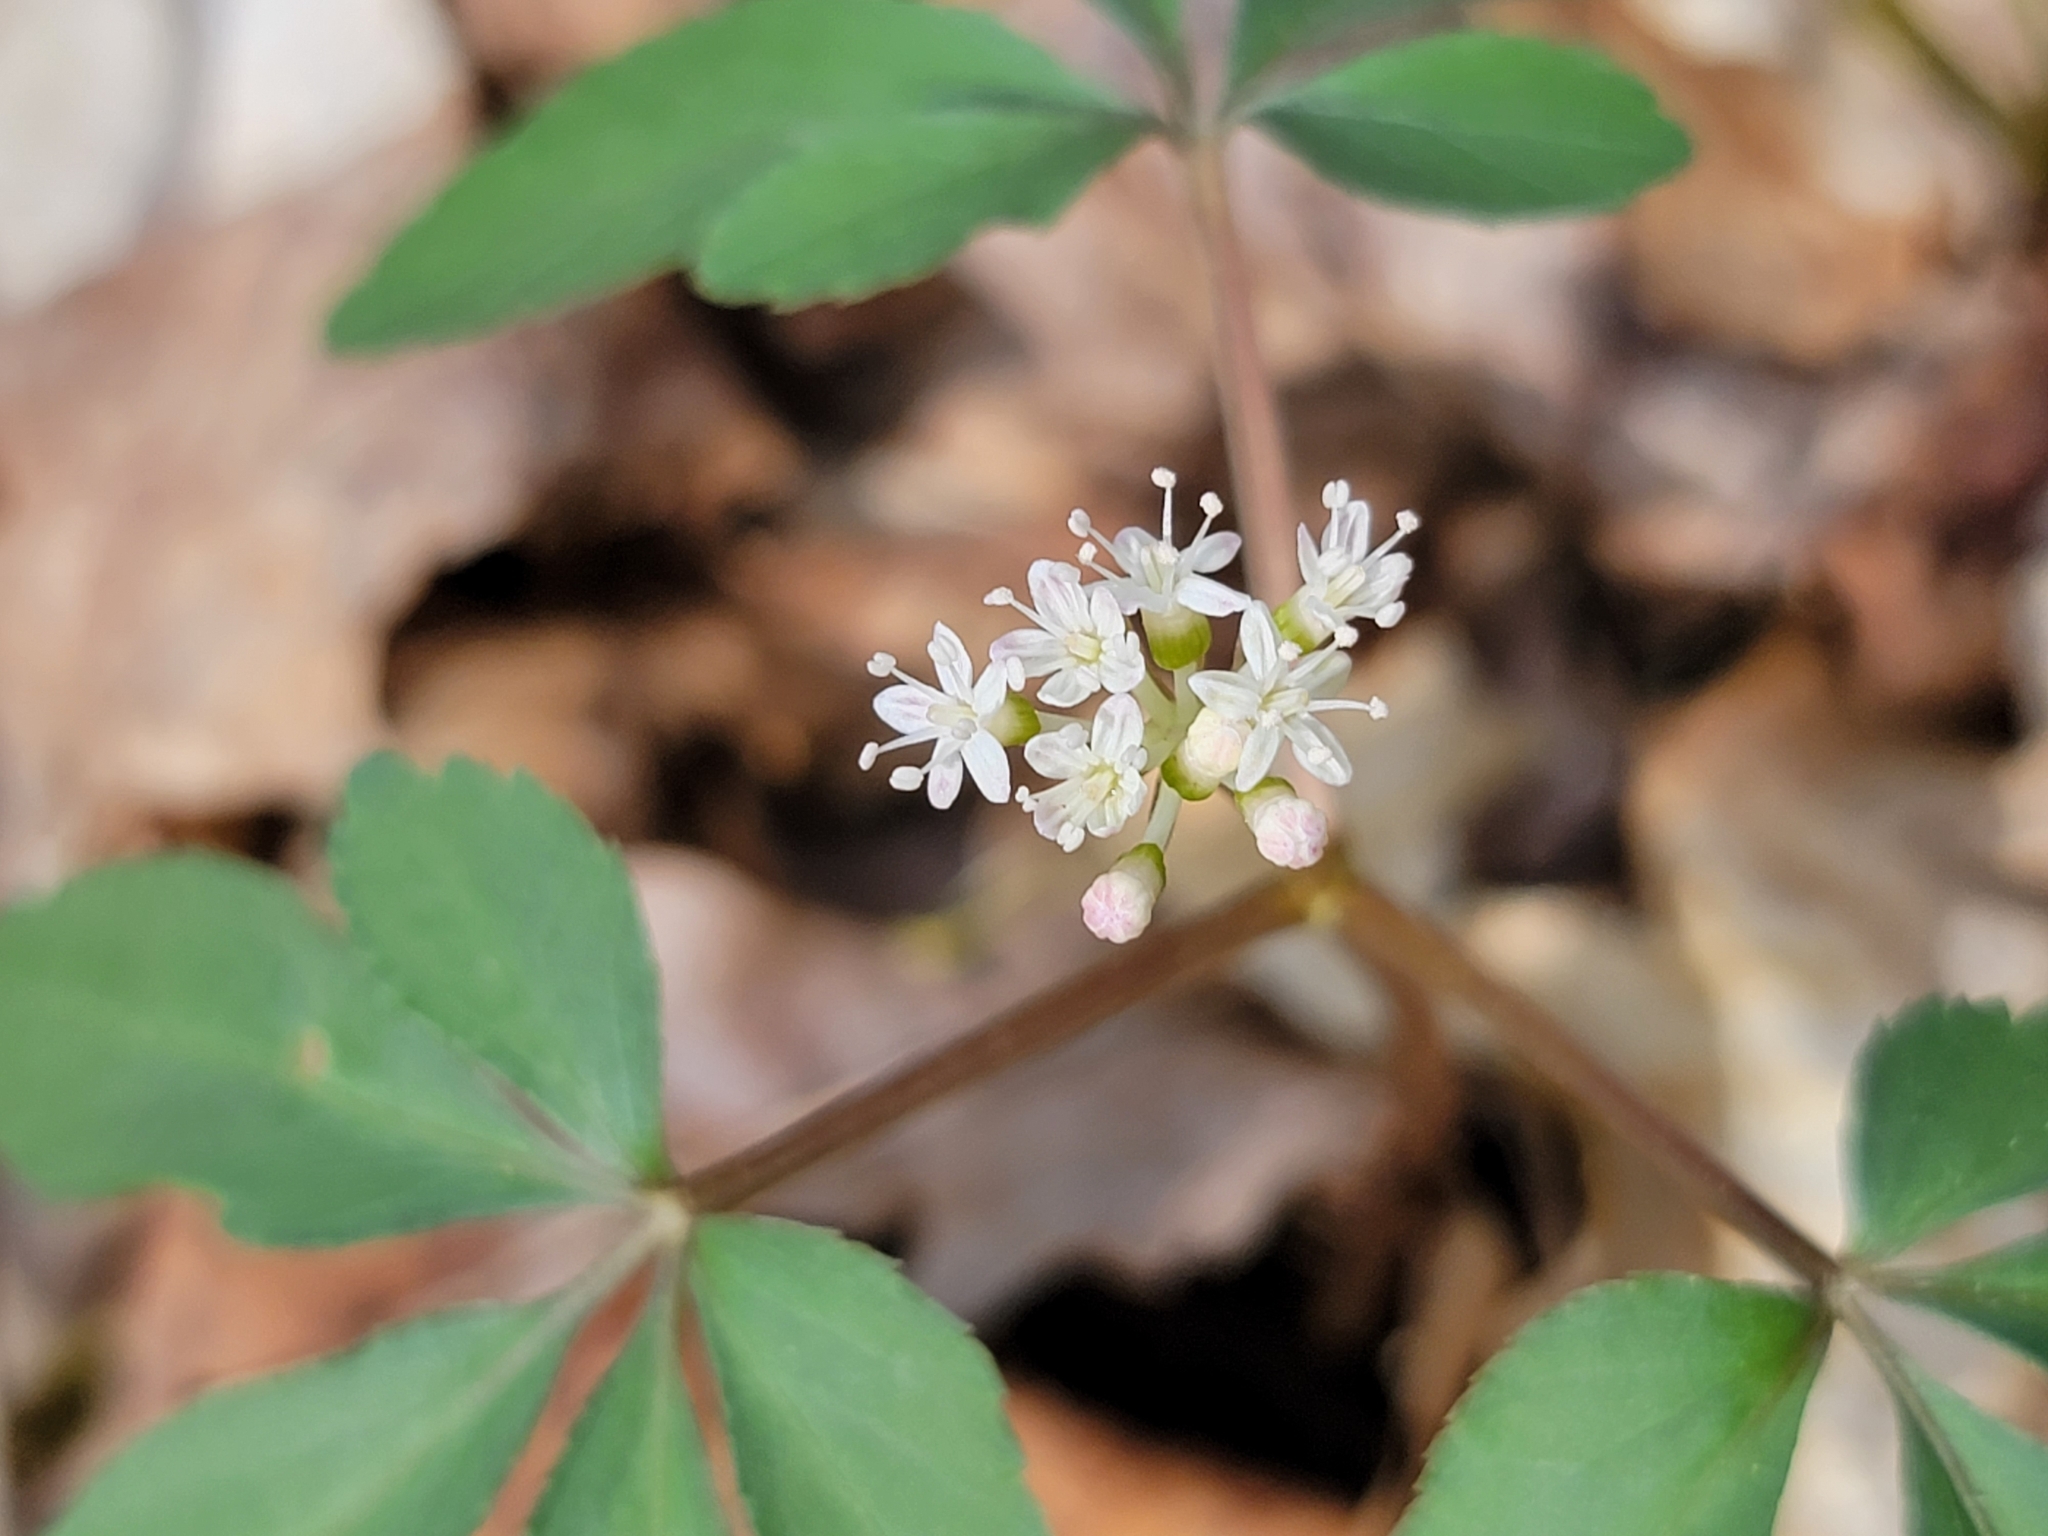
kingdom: Plantae
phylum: Tracheophyta
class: Magnoliopsida
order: Apiales
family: Araliaceae
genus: Panax
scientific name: Panax trifolius
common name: Dwarf ginseng
